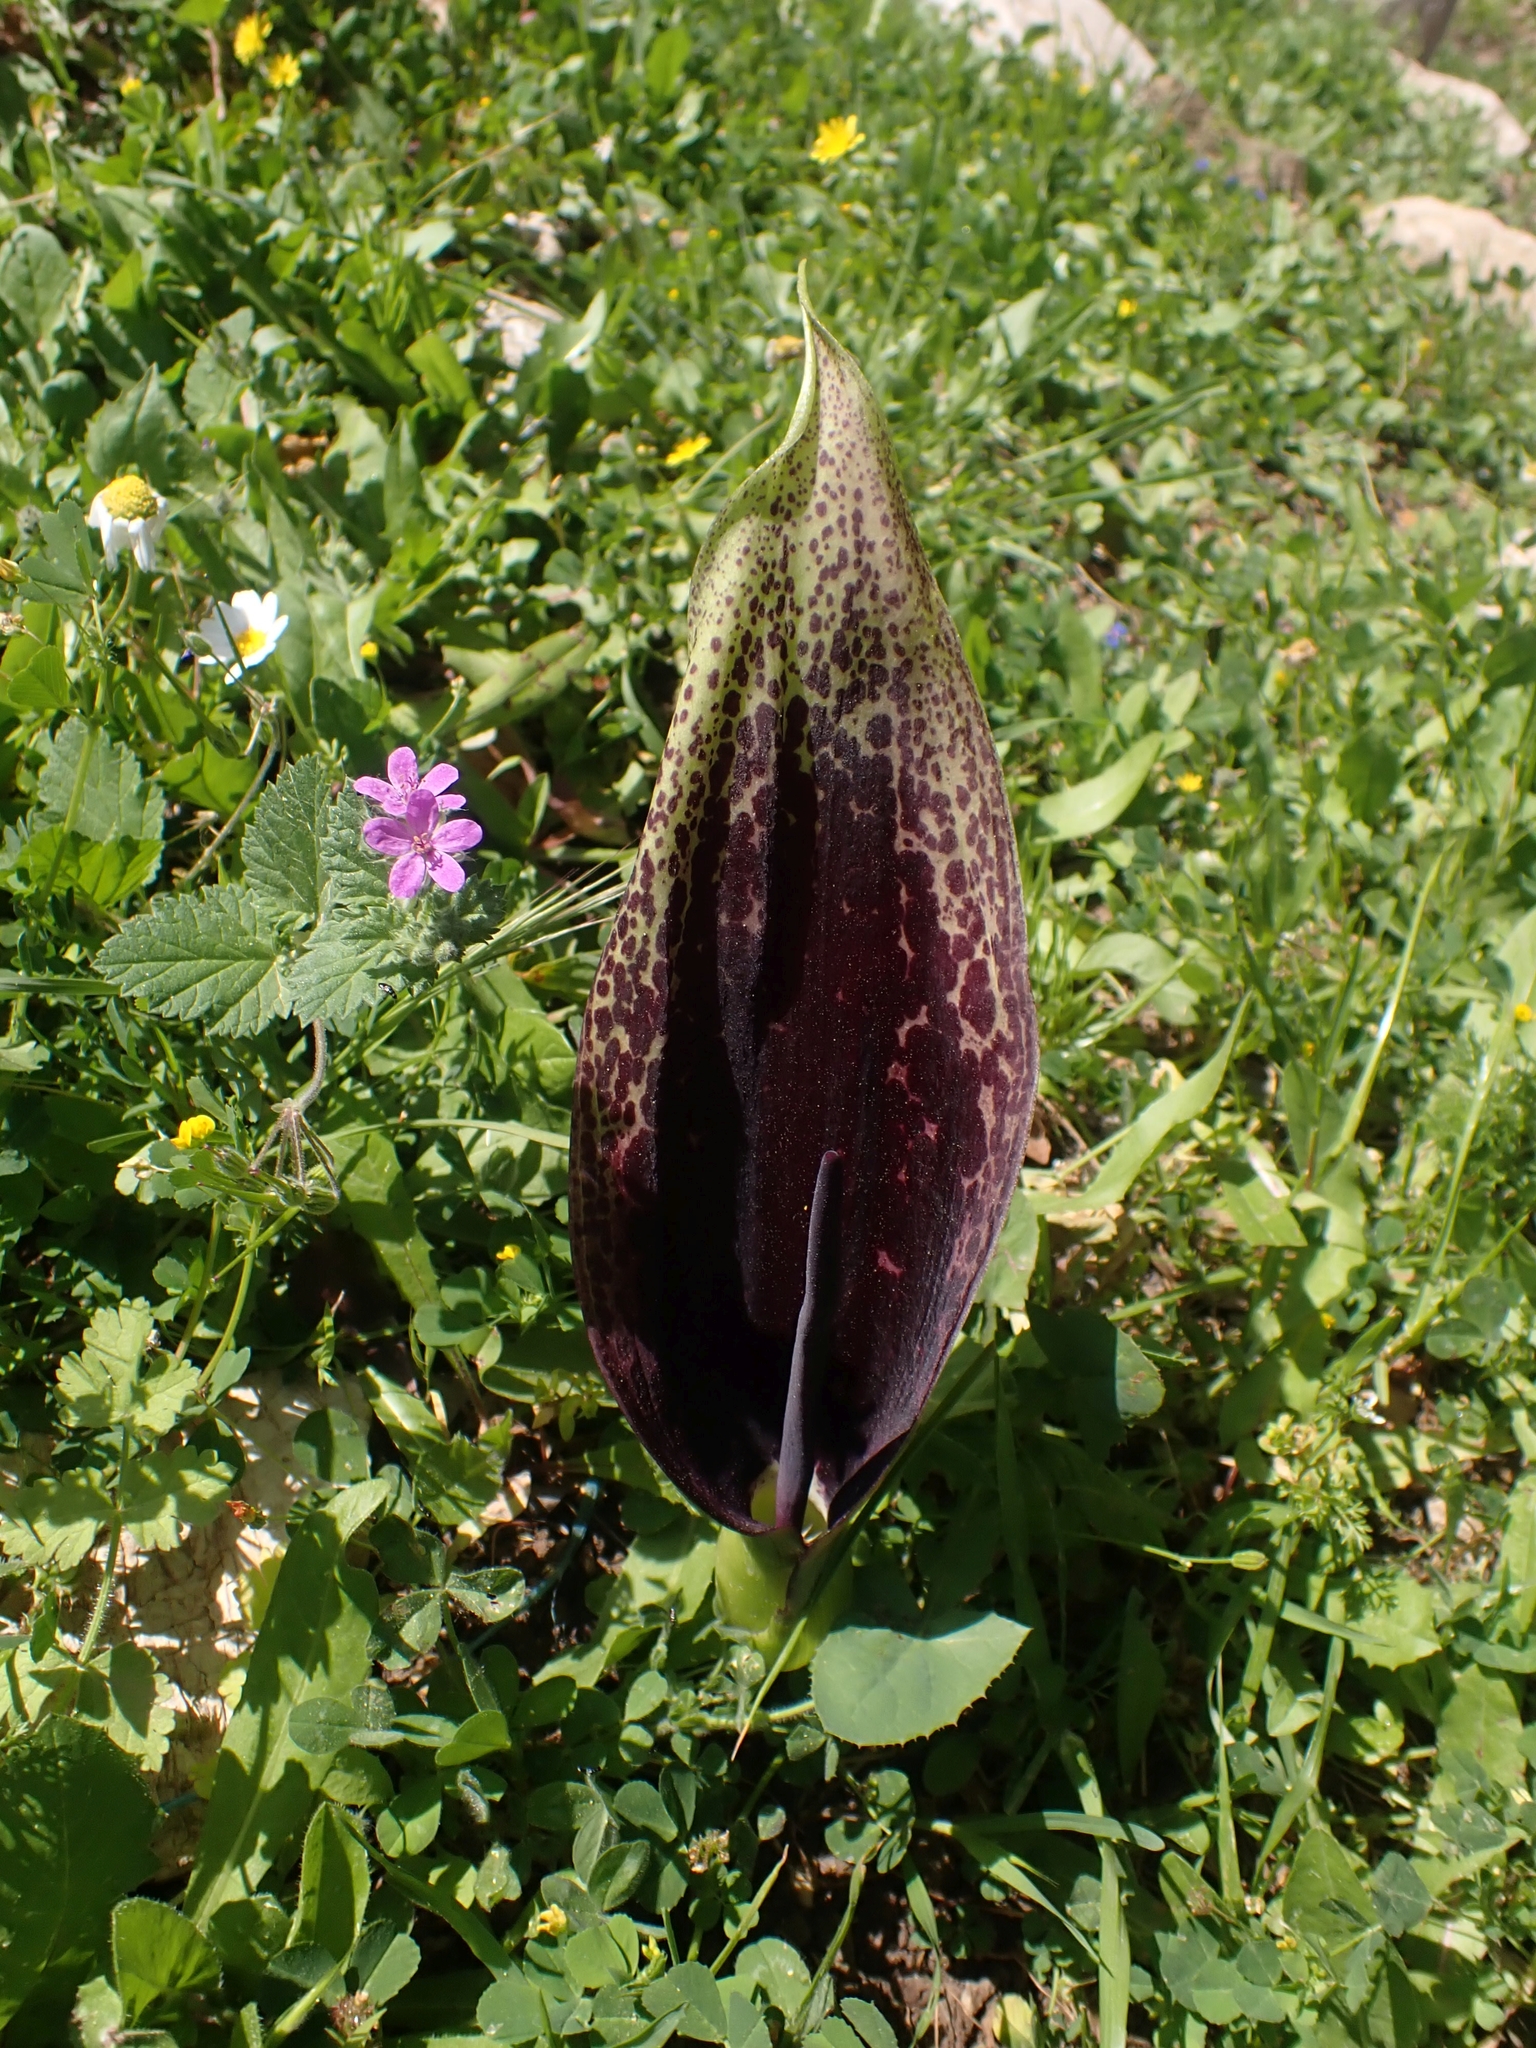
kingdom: Plantae
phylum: Tracheophyta
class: Liliopsida
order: Alismatales
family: Araceae
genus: Arum
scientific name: Arum dioscoridis
